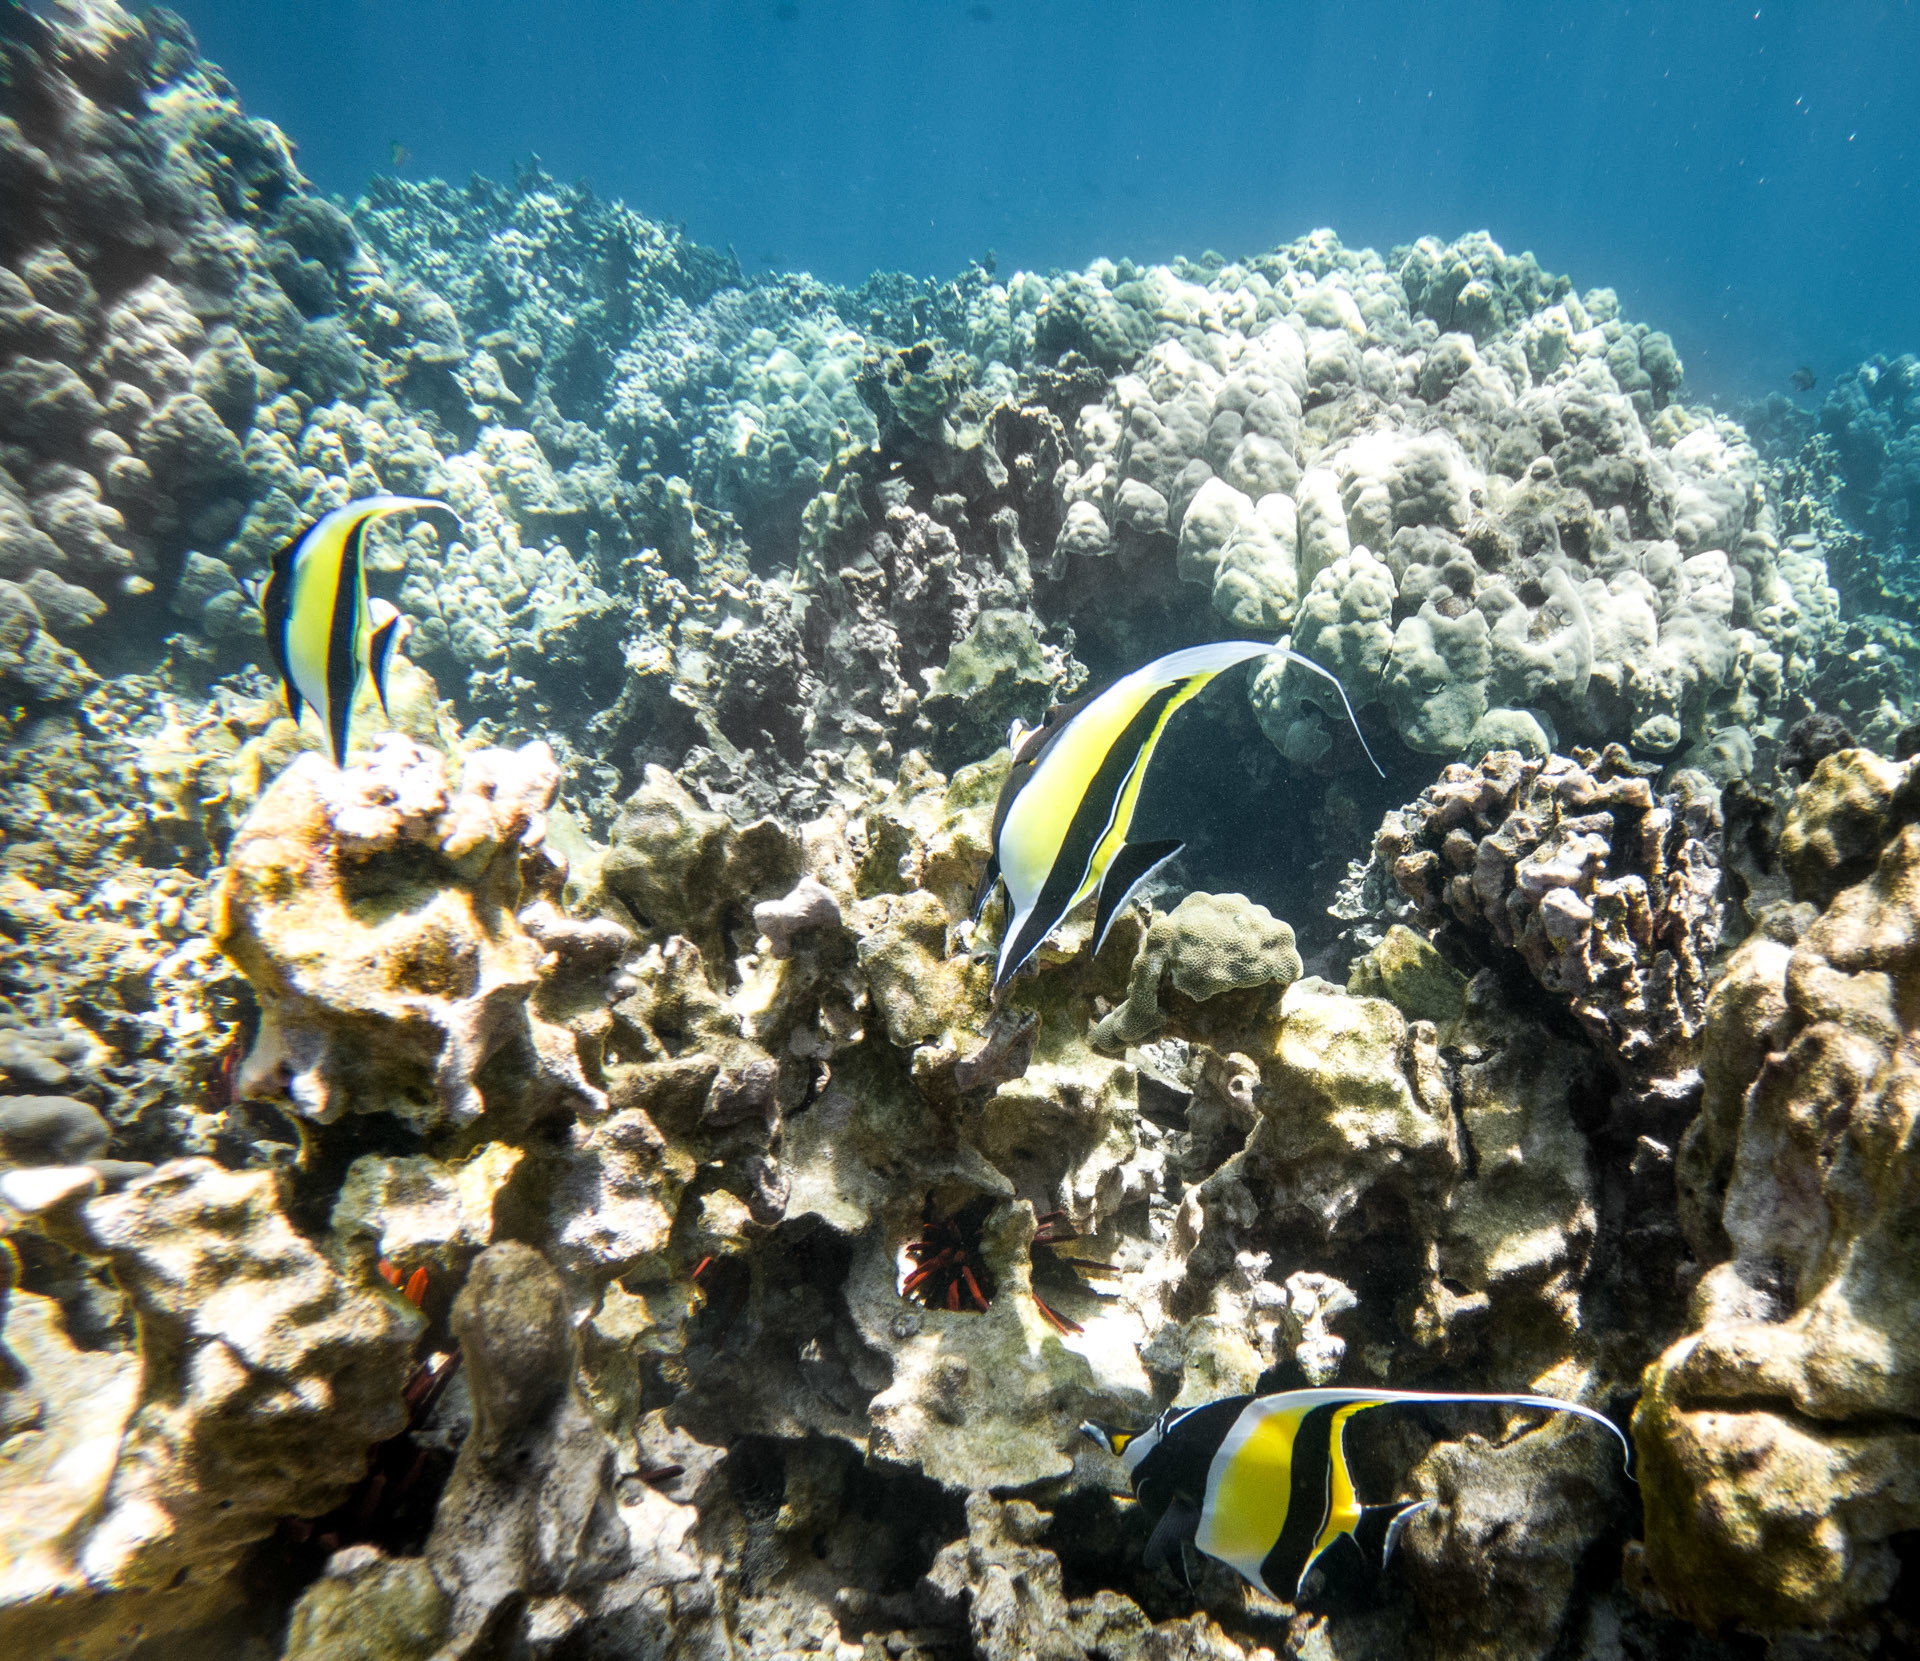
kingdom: Animalia
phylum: Chordata
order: Perciformes
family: Zanclidae
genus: Zanclus
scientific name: Zanclus cornutus
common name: Moorish idol
